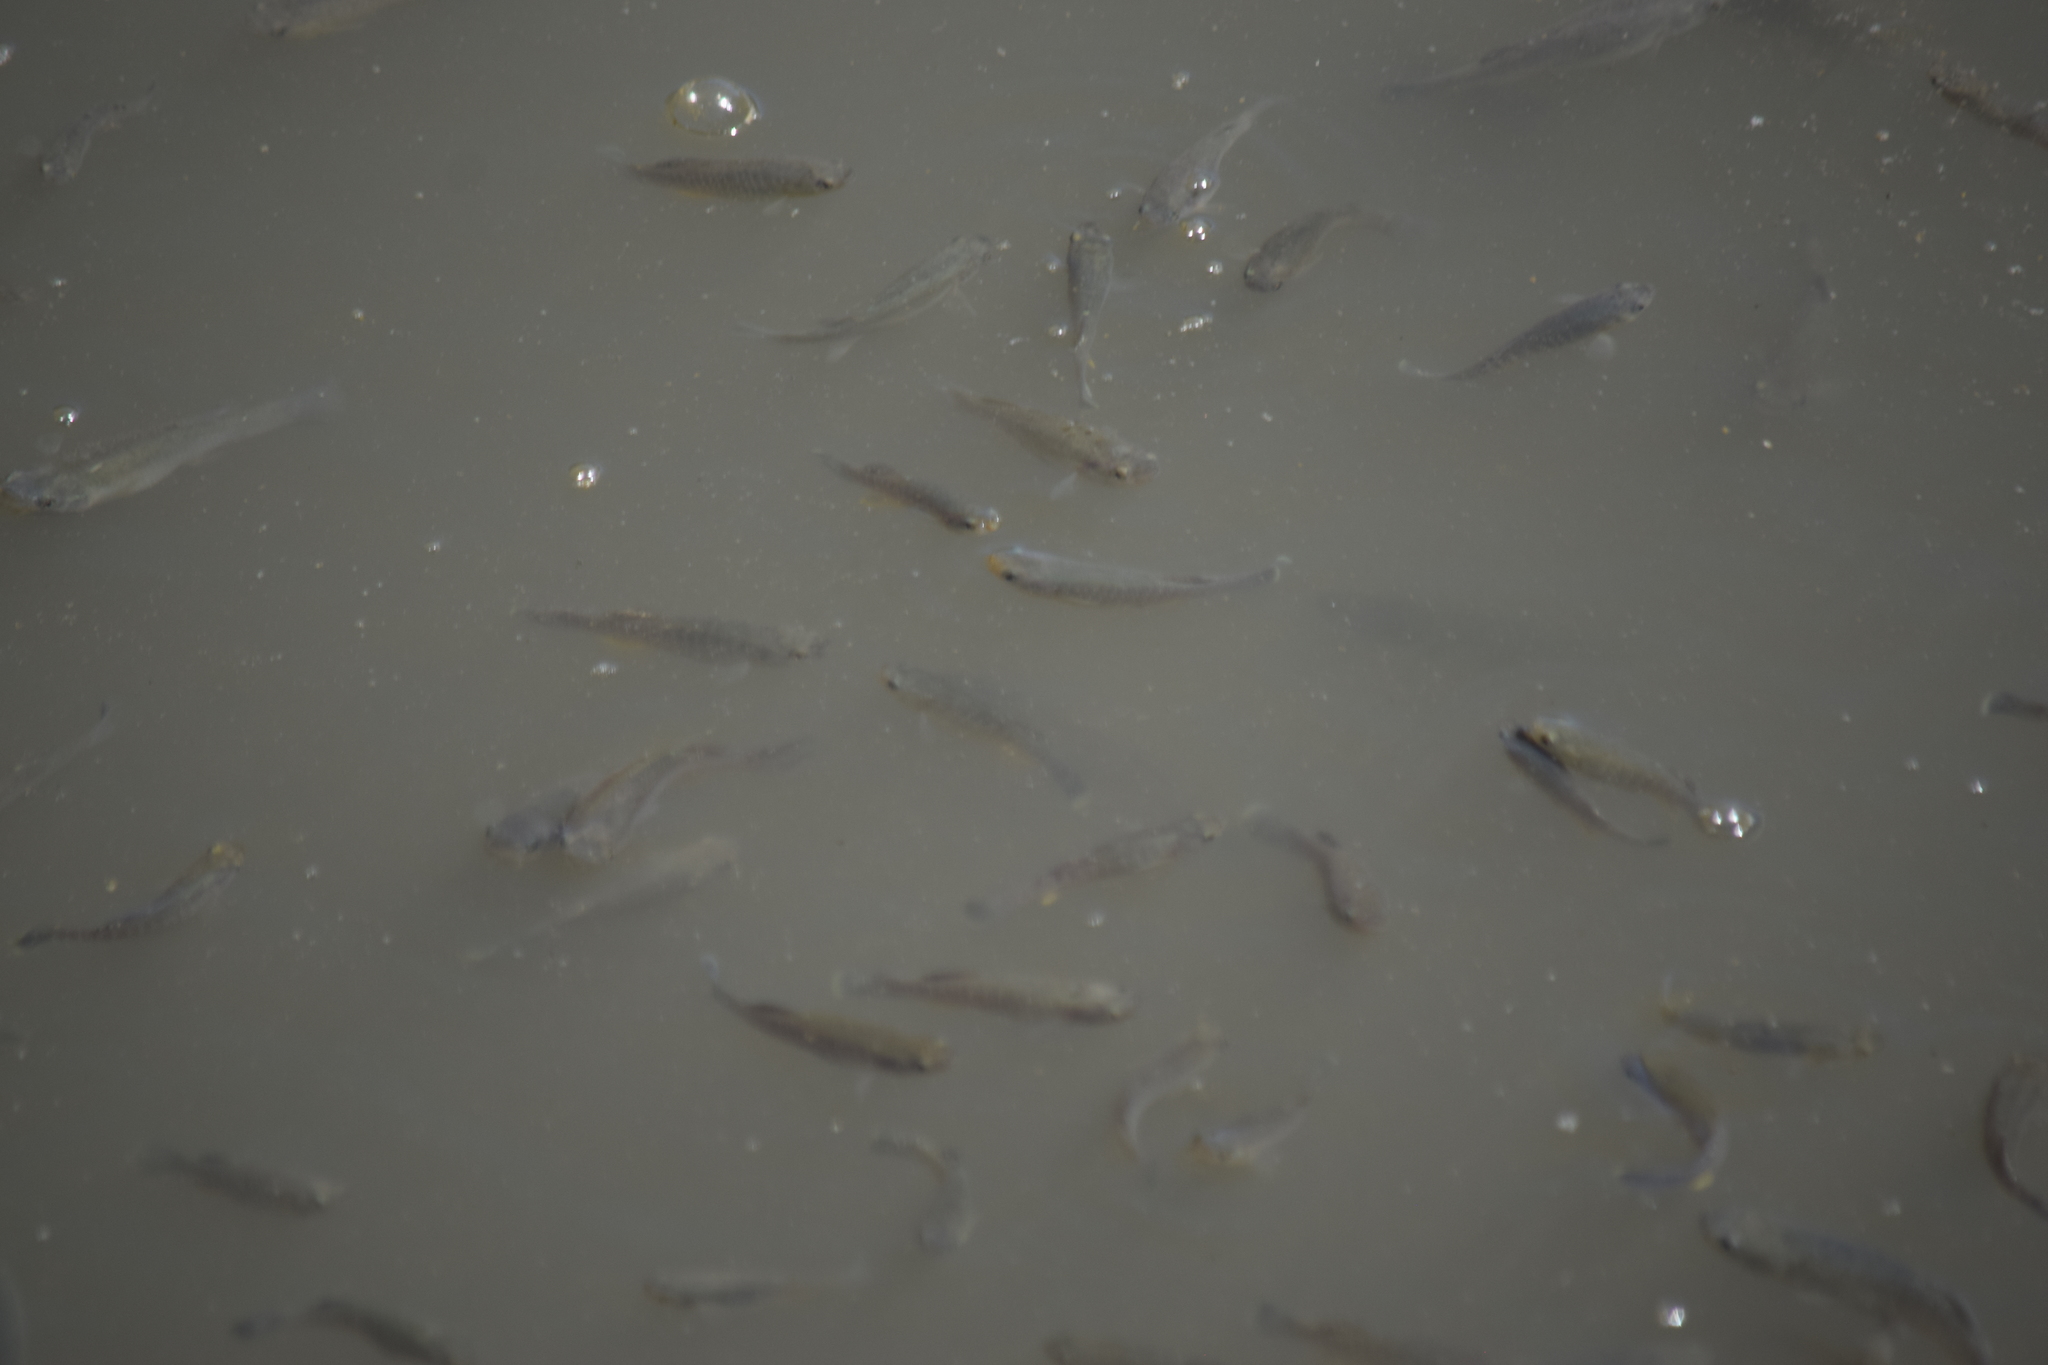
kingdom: Animalia
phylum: Chordata
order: Cyprinodontiformes
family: Fundulidae
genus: Fundulus
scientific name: Fundulus heteroclitus
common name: Mummichog
